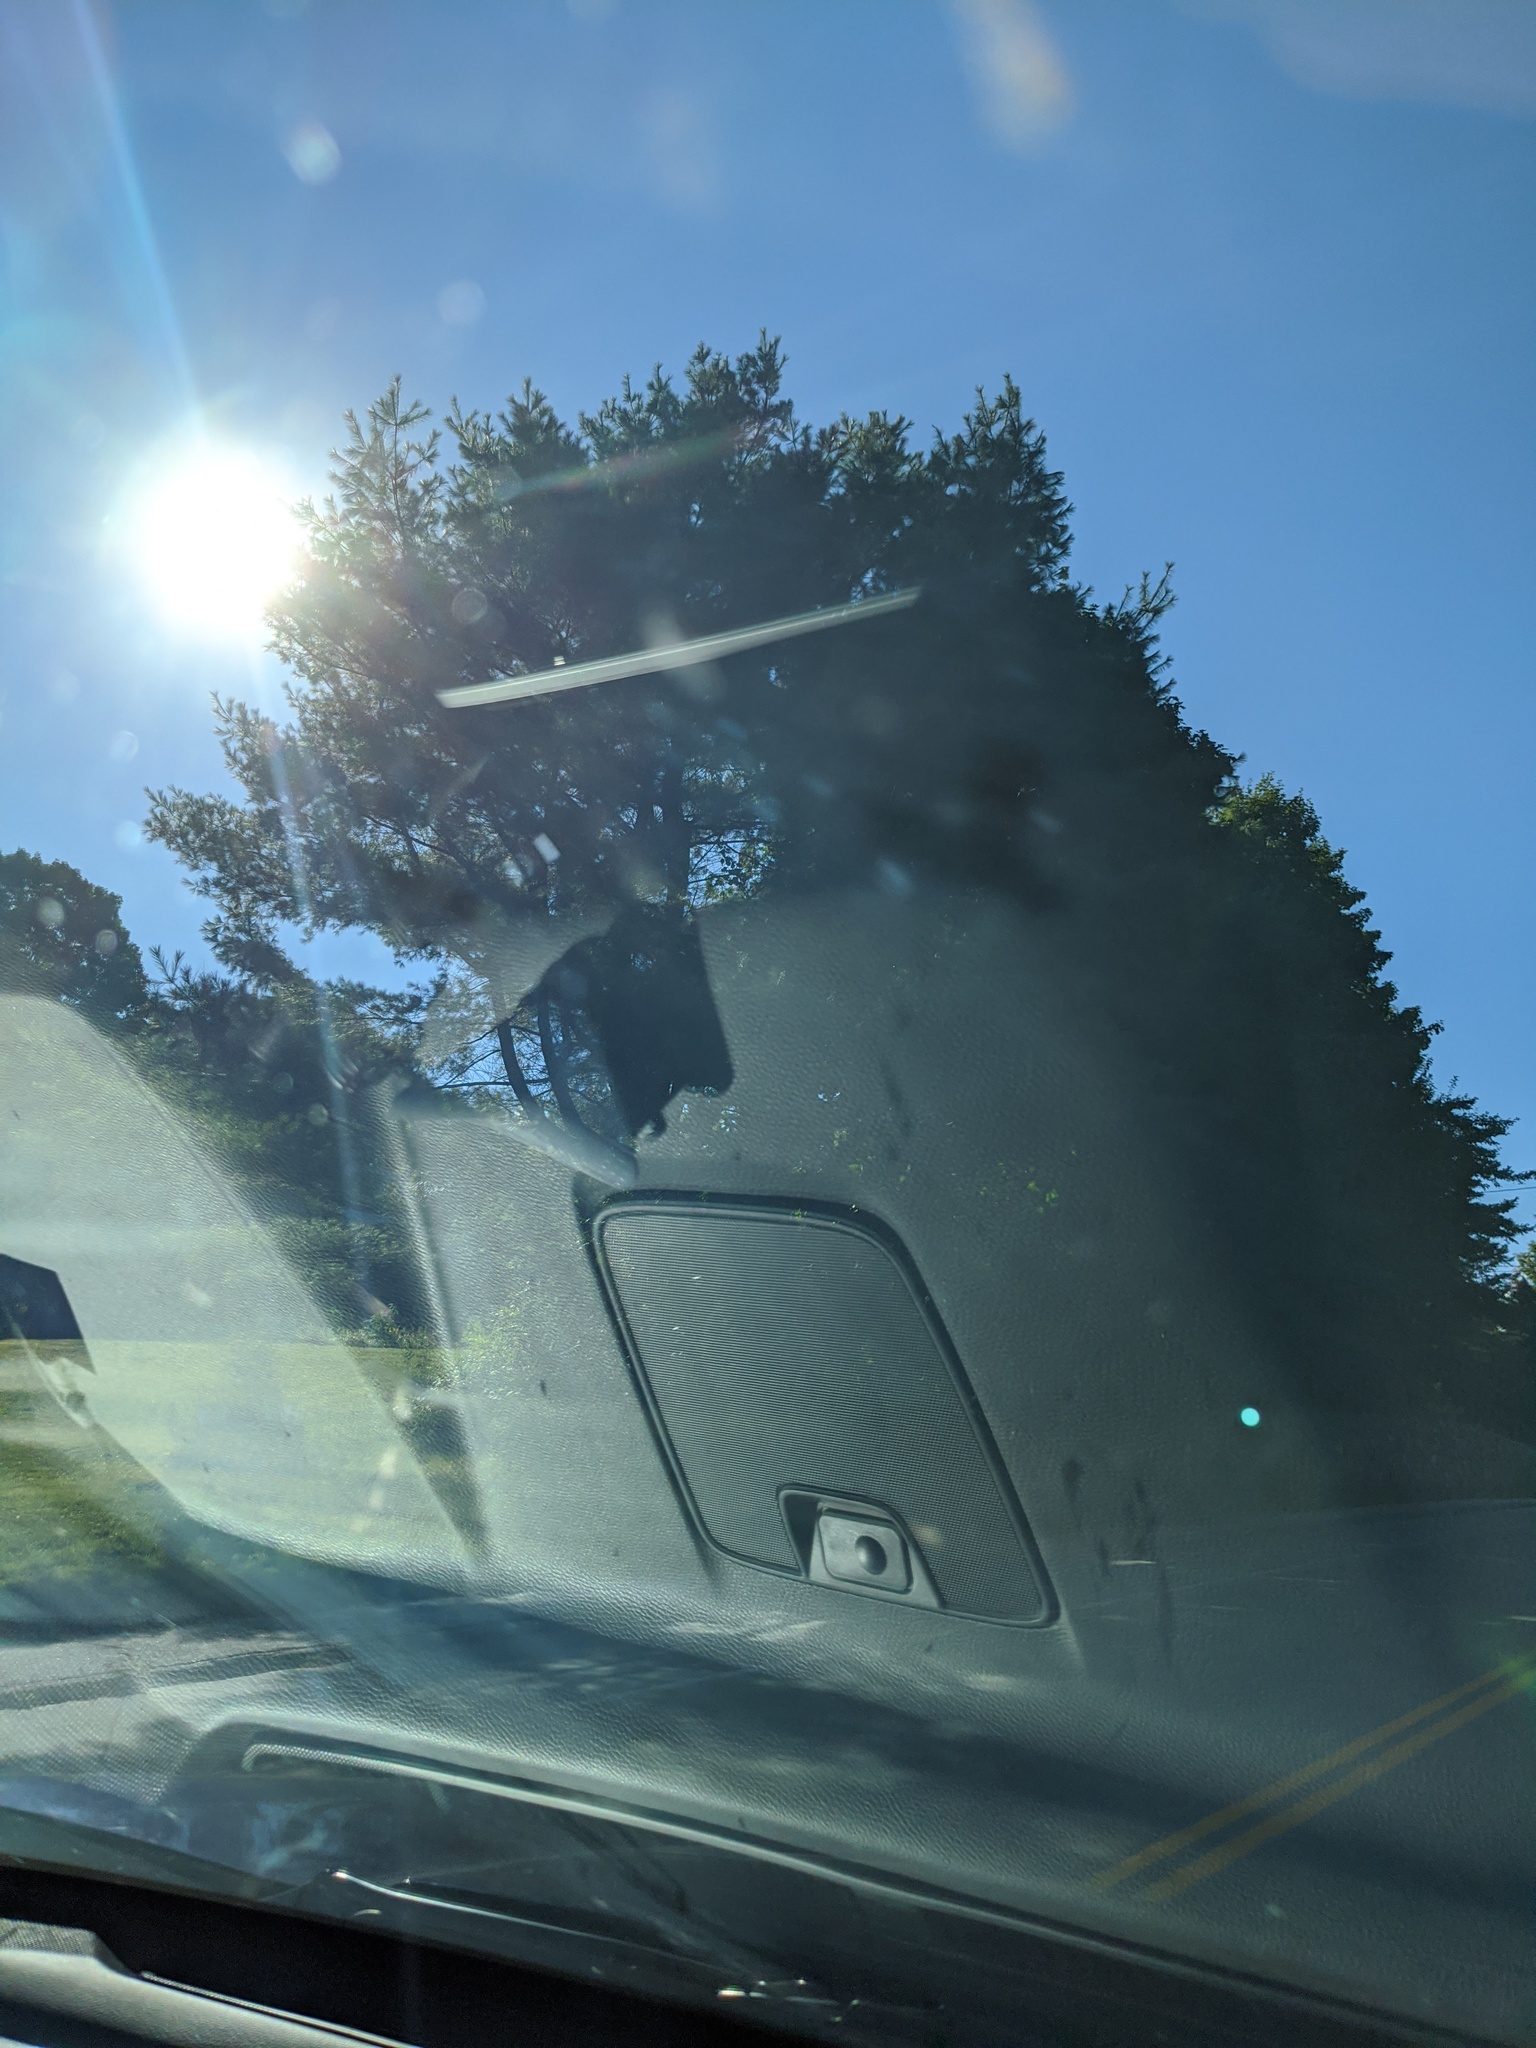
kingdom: Plantae
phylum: Tracheophyta
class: Pinopsida
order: Pinales
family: Pinaceae
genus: Pinus
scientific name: Pinus strobus
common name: Weymouth pine
